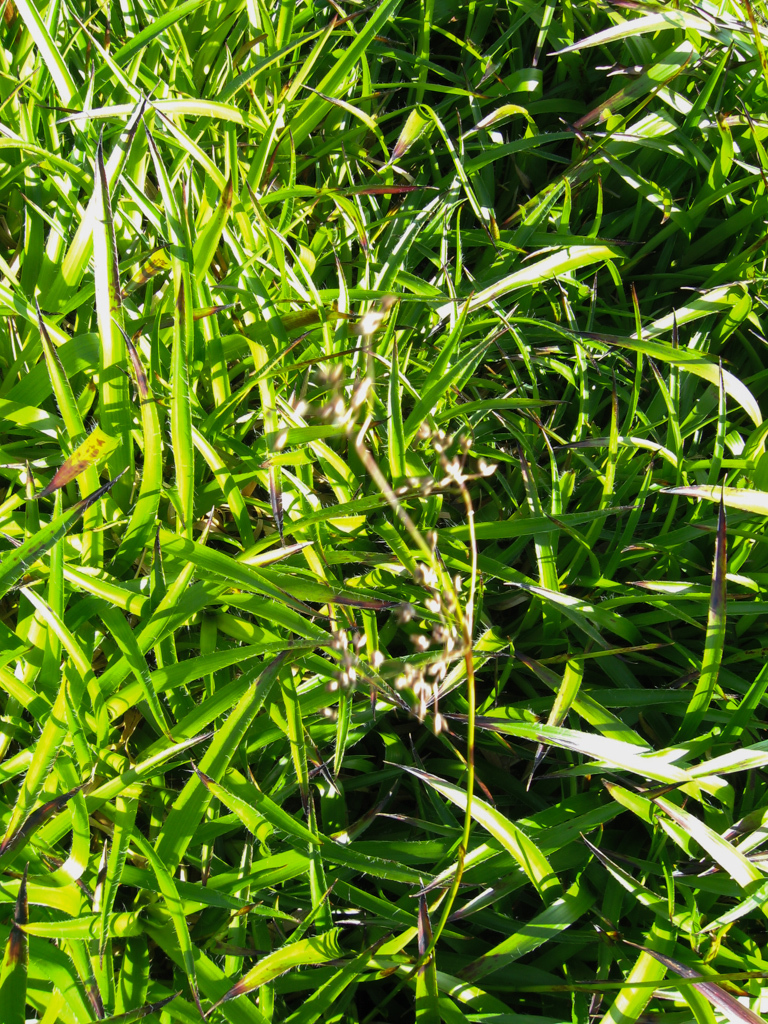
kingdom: Plantae
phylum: Tracheophyta
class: Liliopsida
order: Poales
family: Juncaceae
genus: Luzula
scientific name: Luzula sylvatica
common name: Great wood-rush
